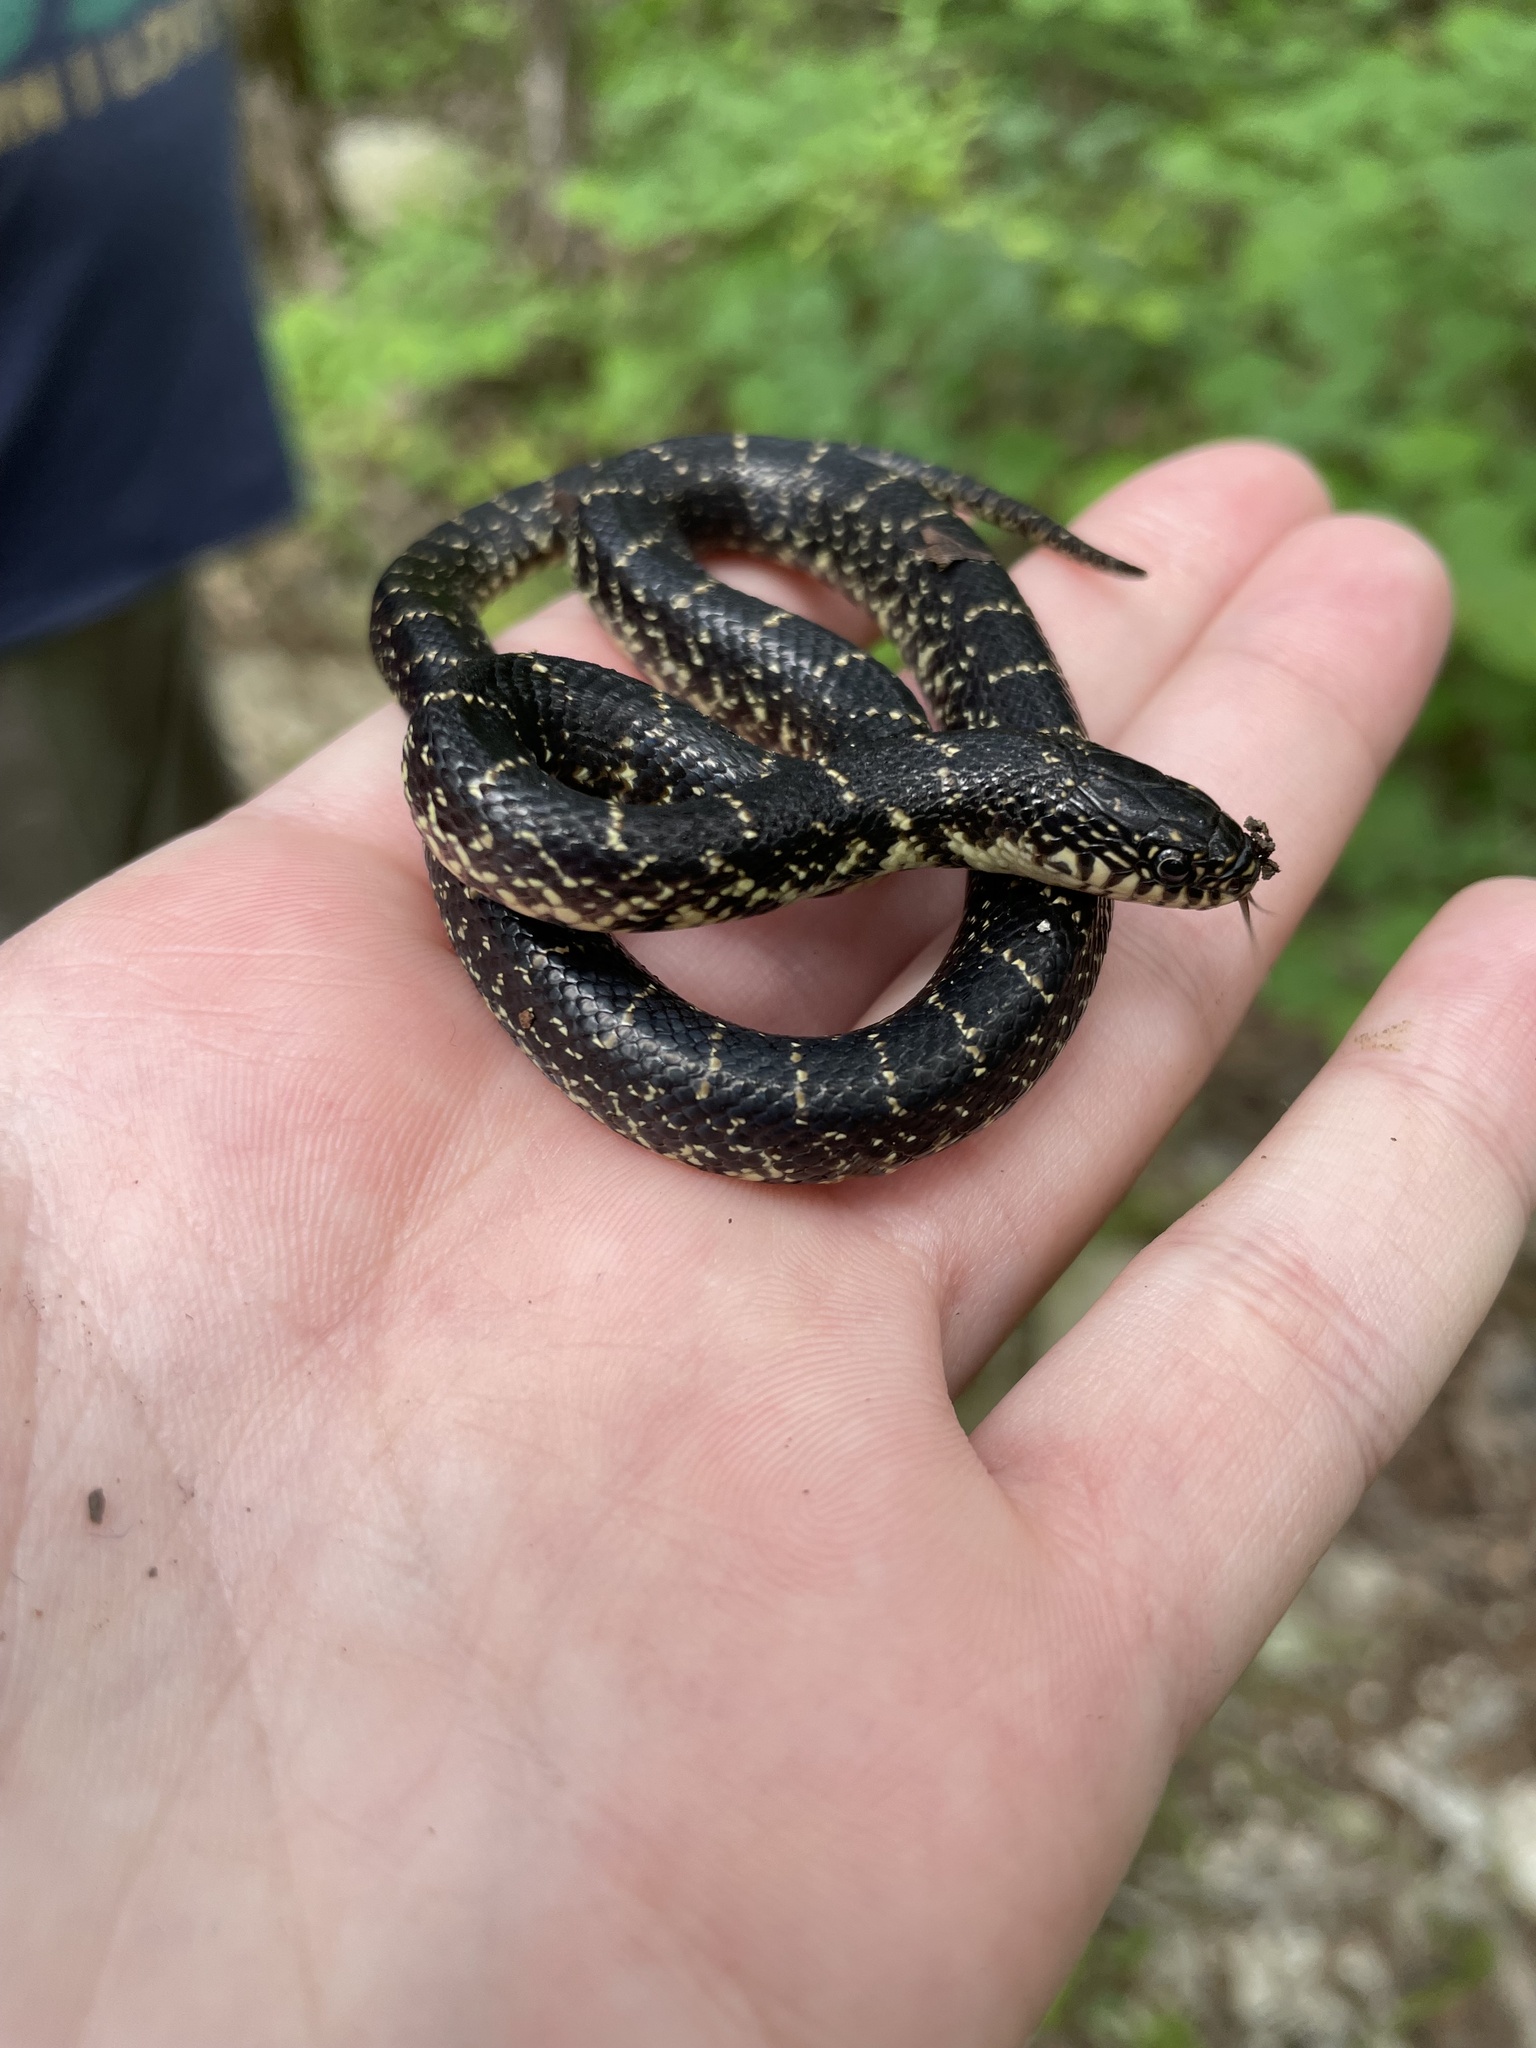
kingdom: Animalia
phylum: Chordata
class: Squamata
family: Colubridae
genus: Lampropeltis
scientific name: Lampropeltis nigra
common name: Black kingsnake
